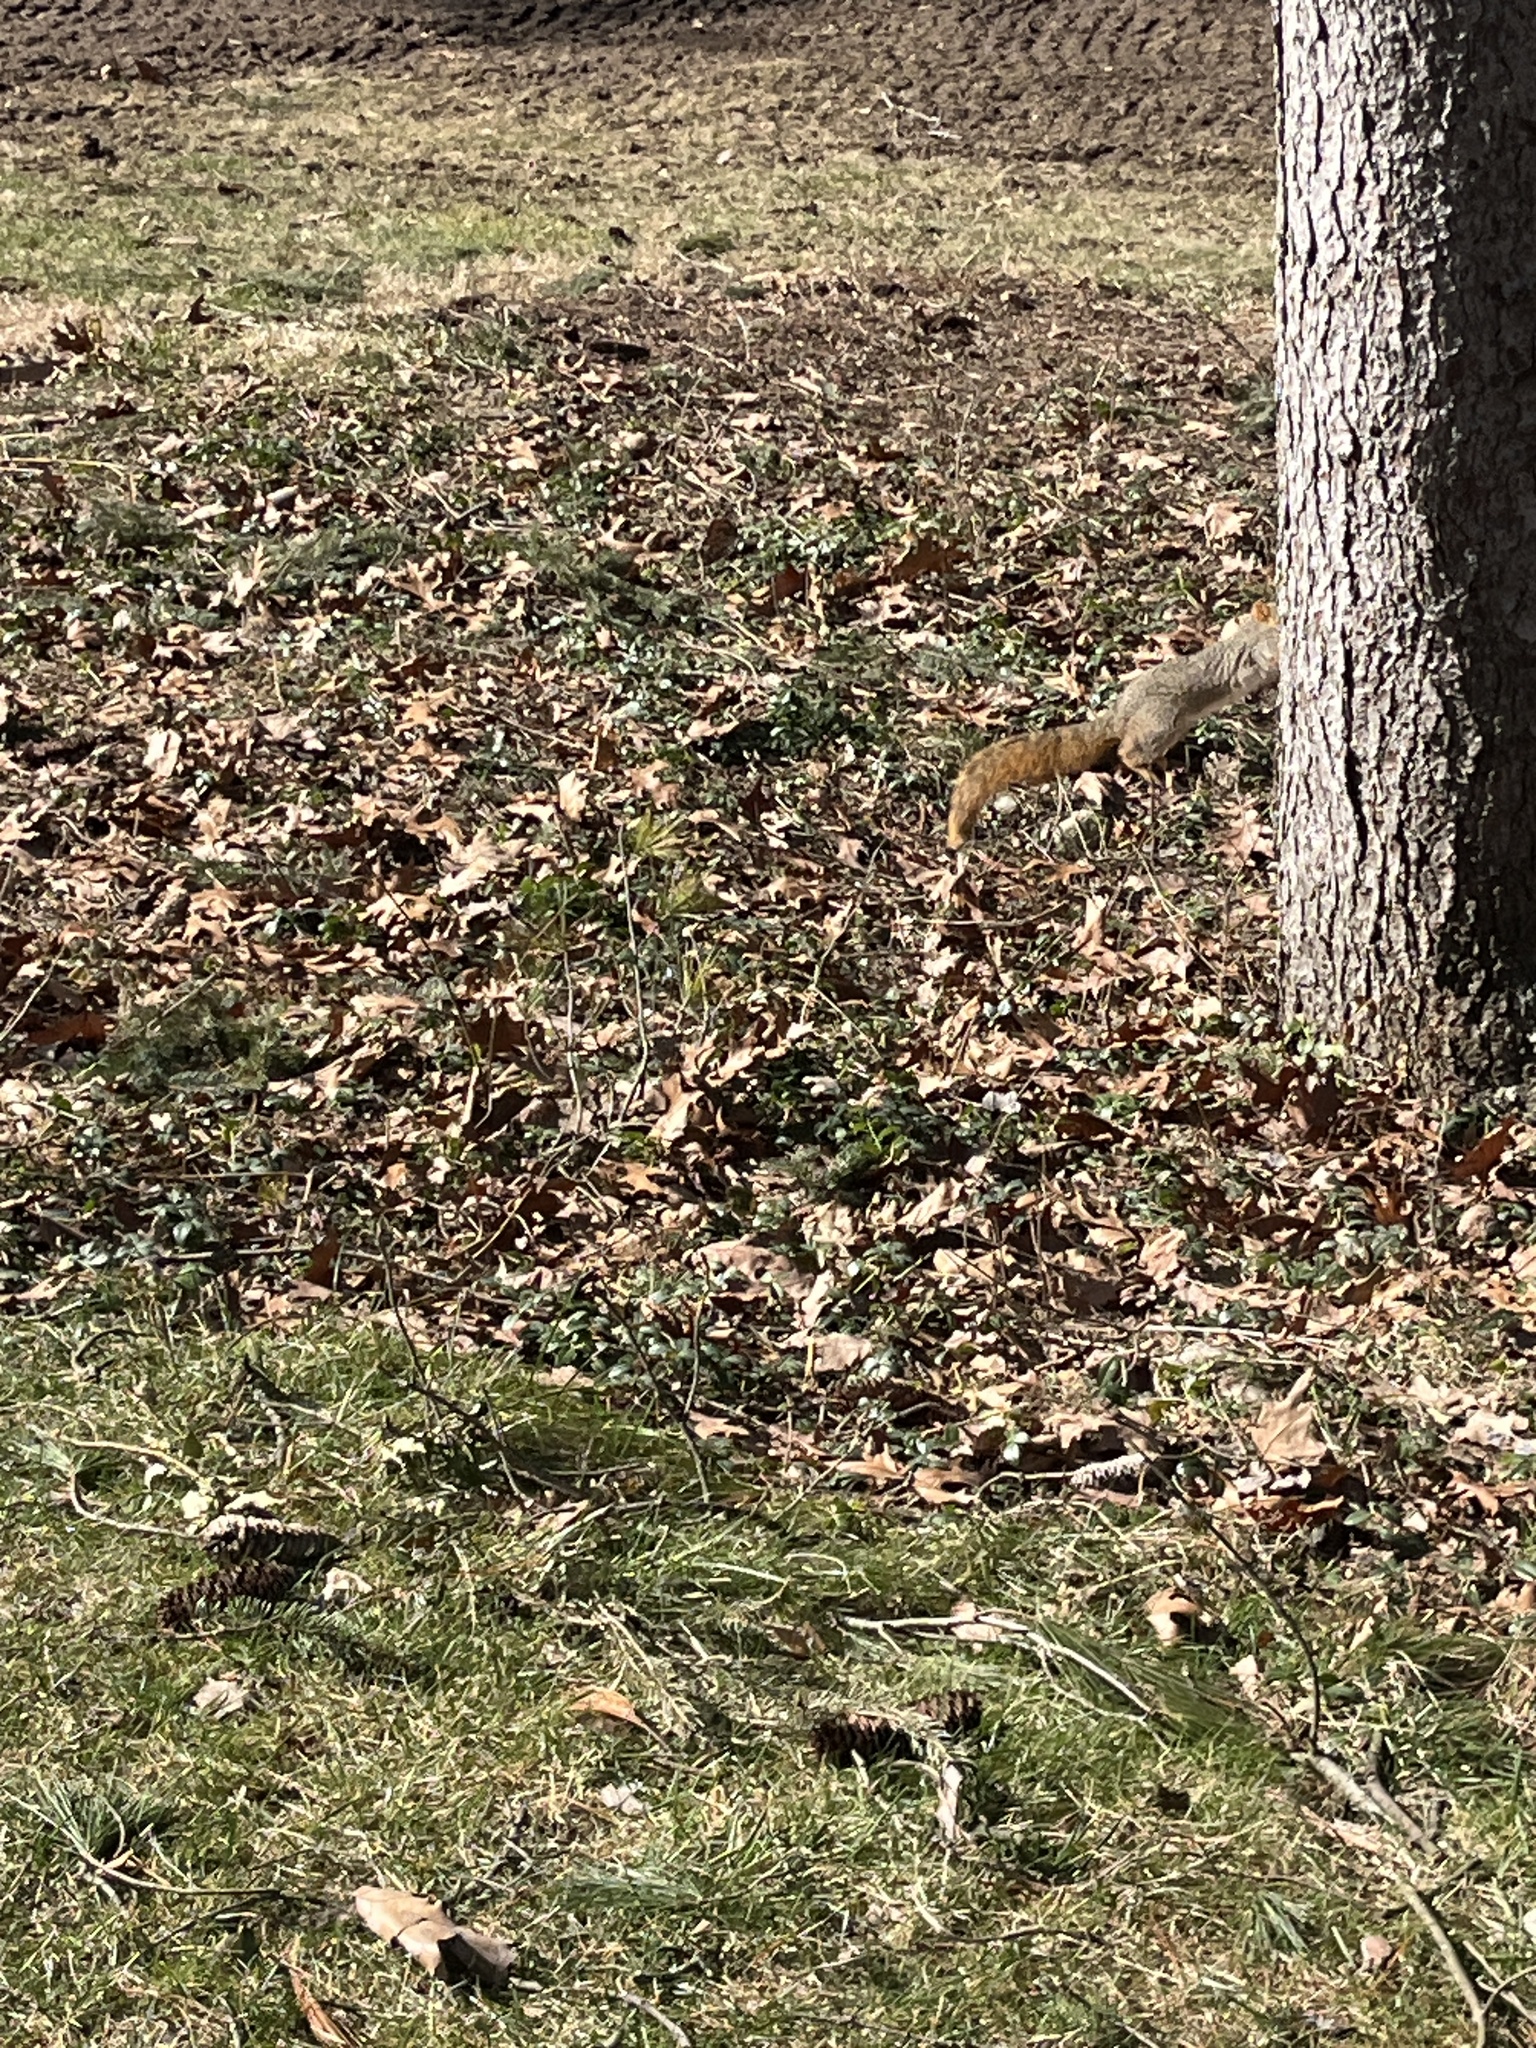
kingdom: Animalia
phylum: Chordata
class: Mammalia
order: Rodentia
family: Sciuridae
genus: Sciurus
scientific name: Sciurus niger
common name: Fox squirrel
